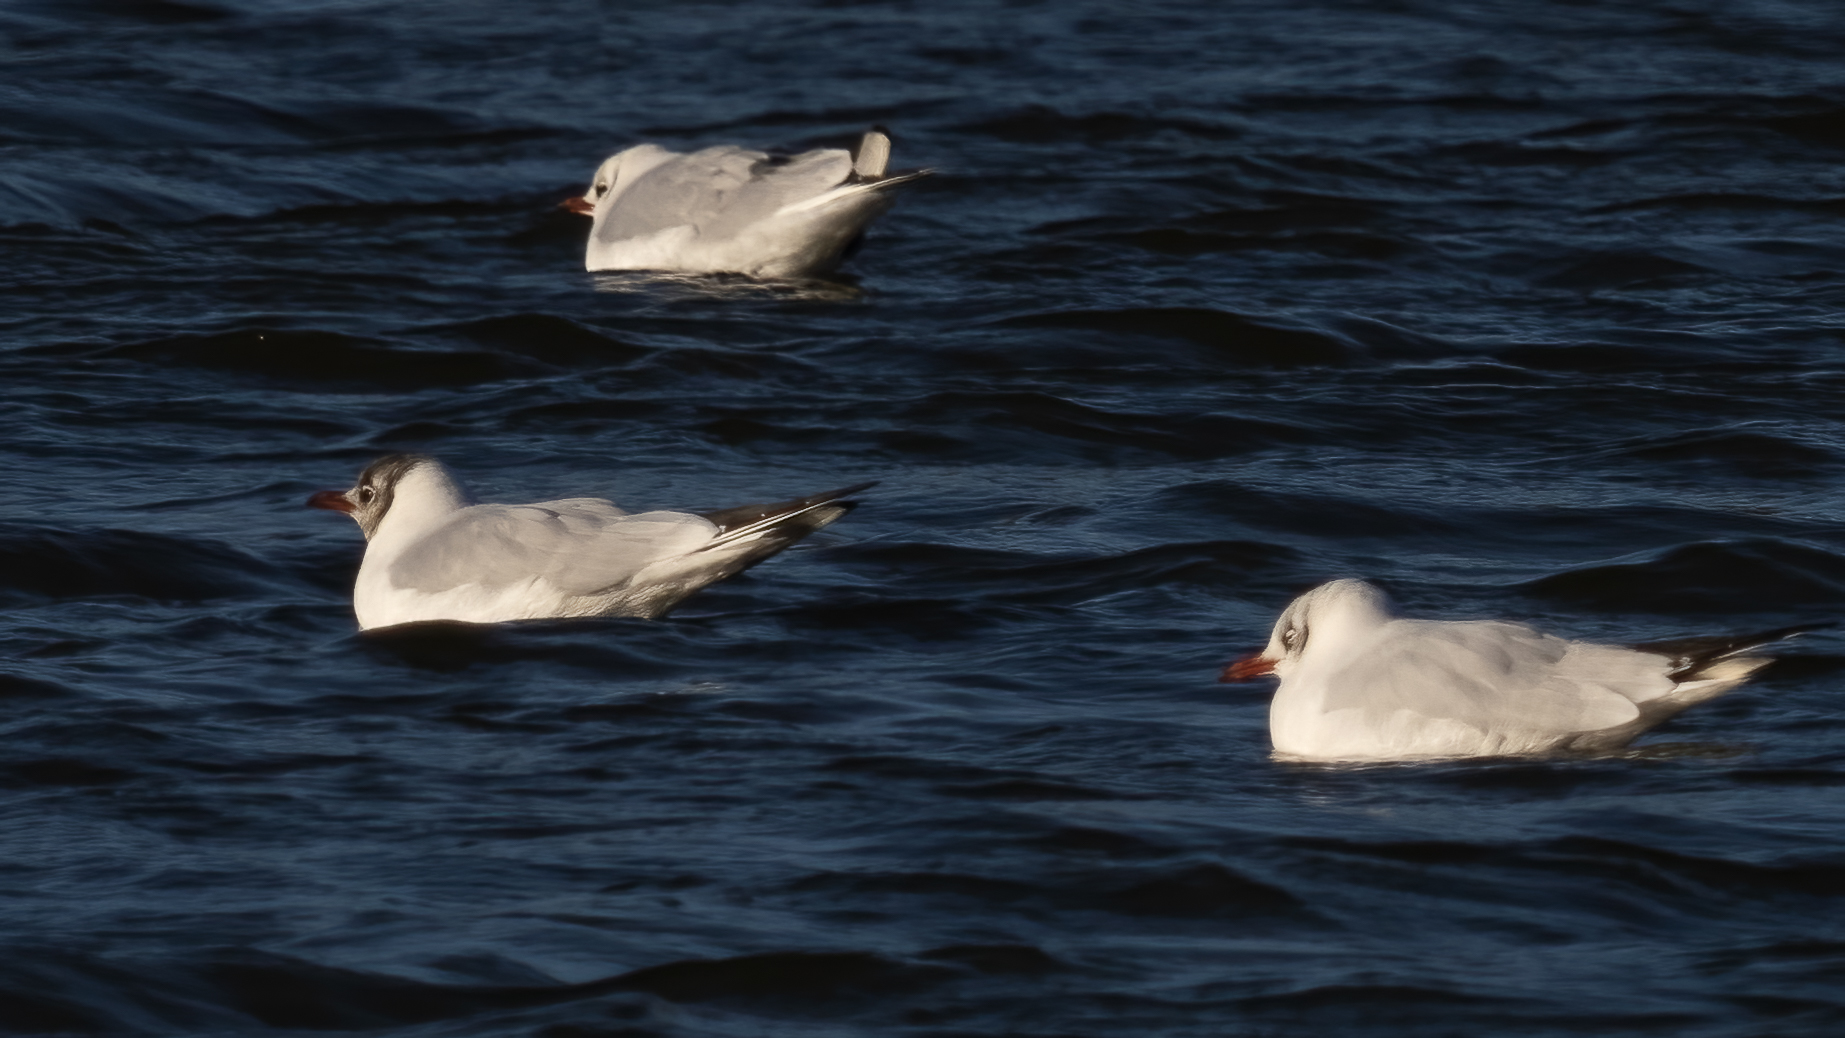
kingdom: Animalia
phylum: Chordata
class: Aves
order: Charadriiformes
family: Laridae
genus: Chroicocephalus
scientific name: Chroicocephalus ridibundus
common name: Black-headed gull
